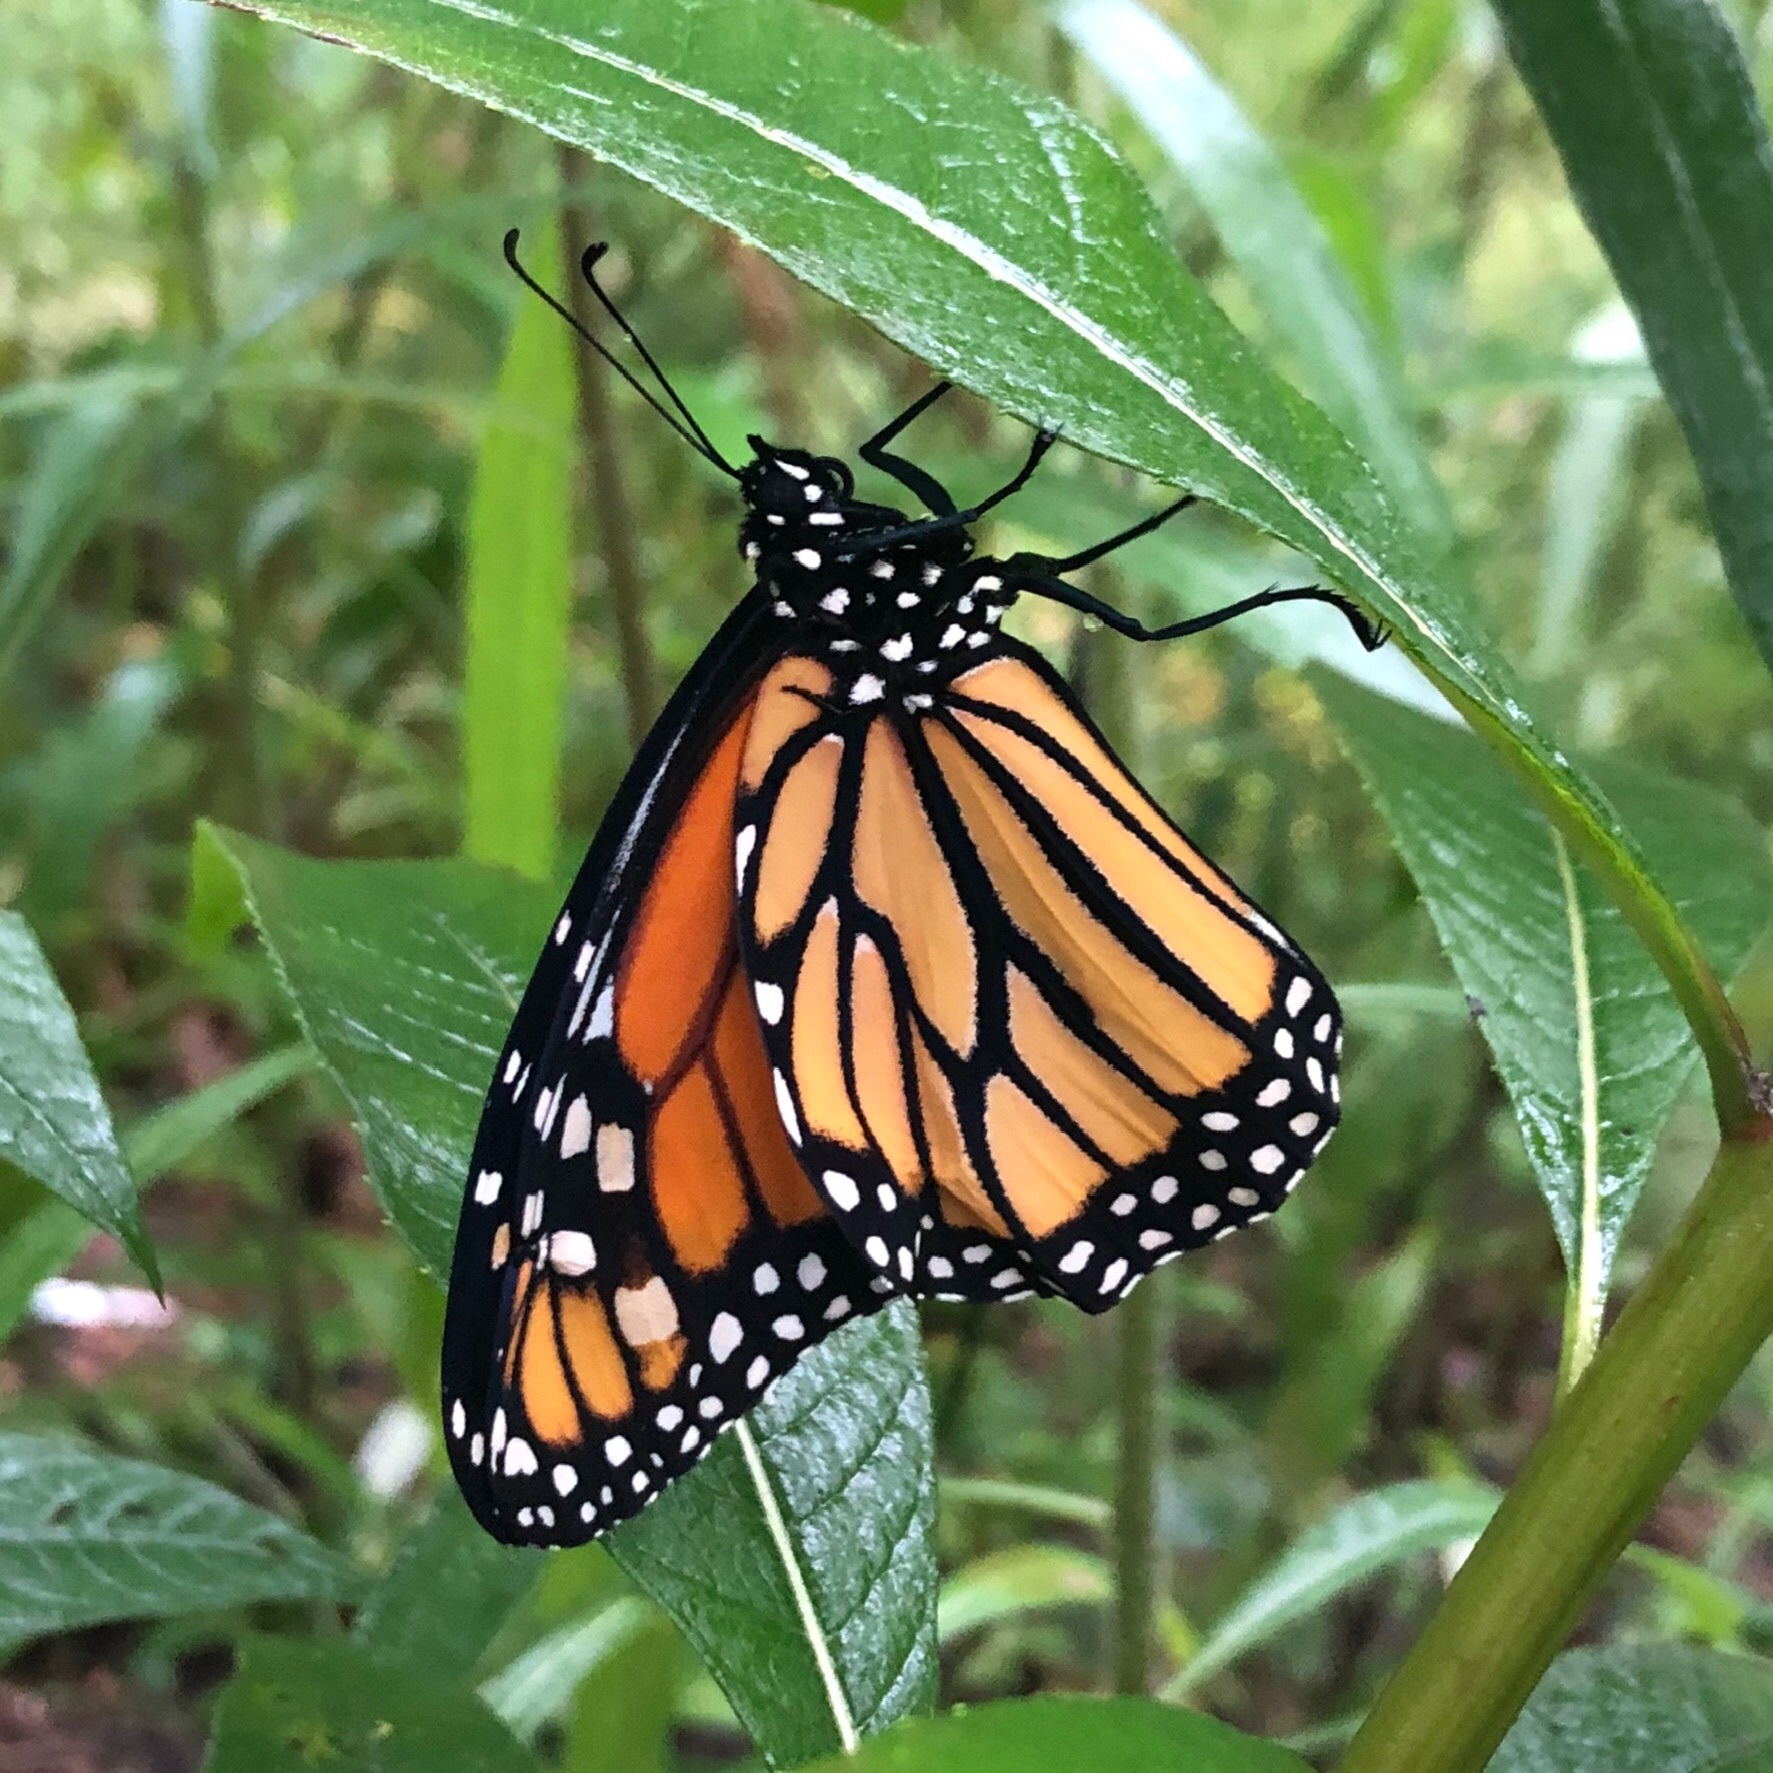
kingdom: Animalia
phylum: Arthropoda
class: Insecta
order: Lepidoptera
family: Nymphalidae
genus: Danaus
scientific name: Danaus plexippus
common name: Monarch
